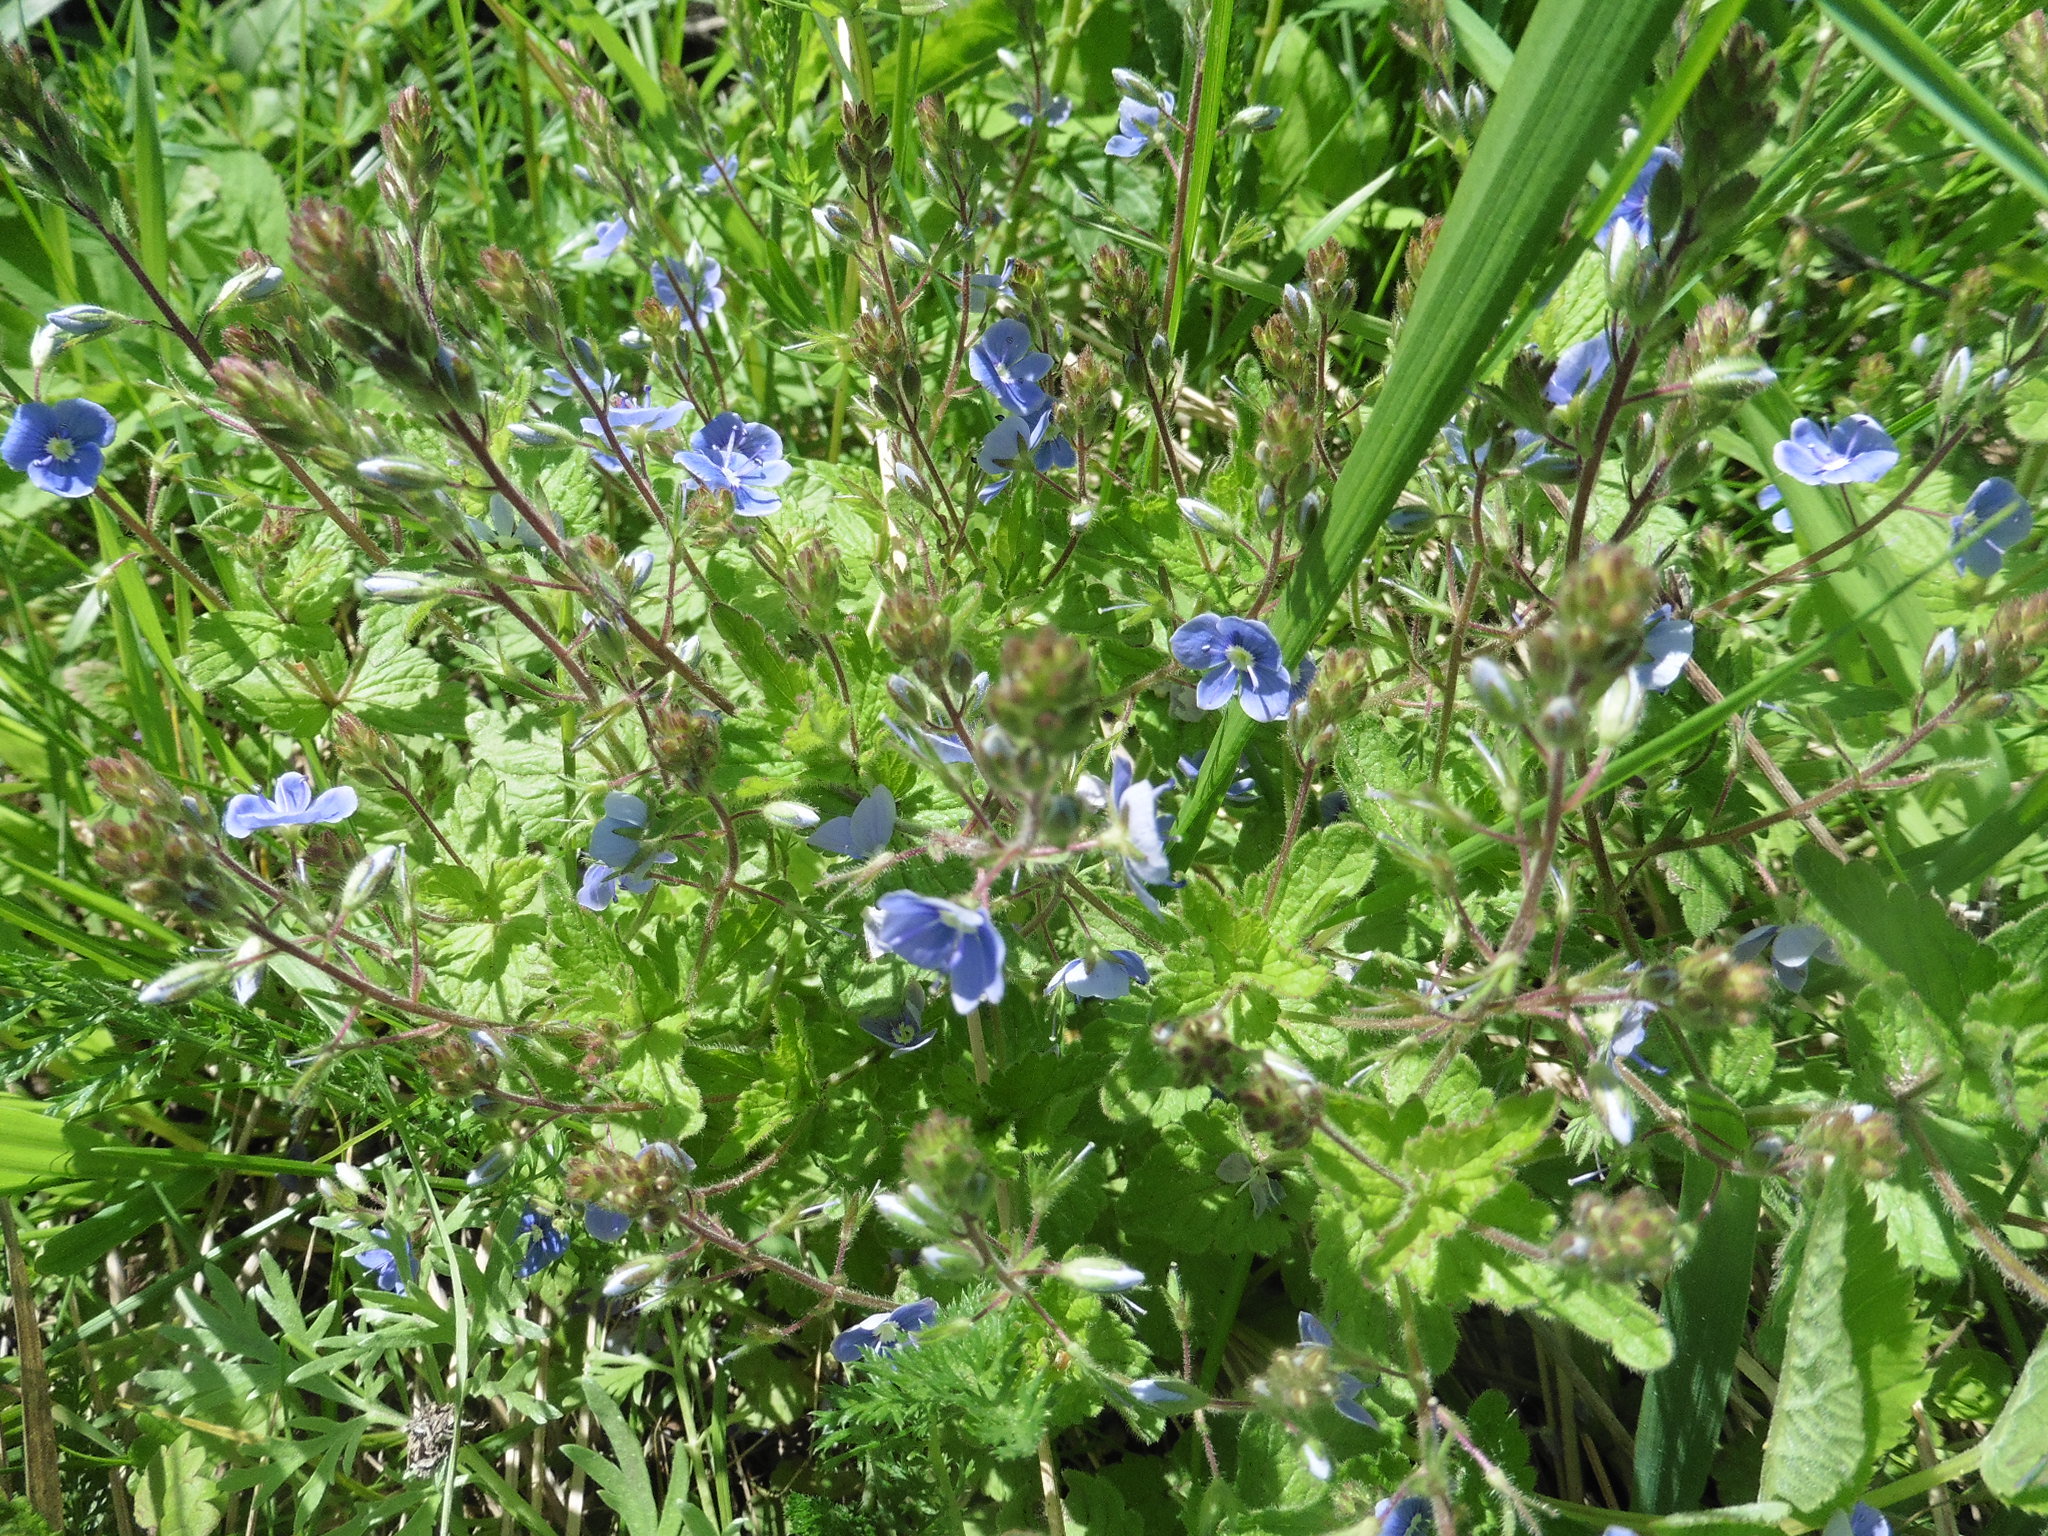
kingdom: Plantae
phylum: Tracheophyta
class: Magnoliopsida
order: Lamiales
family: Plantaginaceae
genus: Veronica
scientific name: Veronica chamaedrys
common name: Germander speedwell
